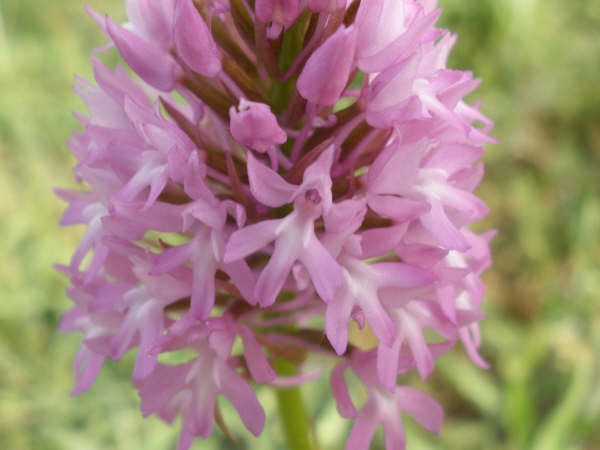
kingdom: Plantae
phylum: Tracheophyta
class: Liliopsida
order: Asparagales
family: Orchidaceae
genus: Anacamptis
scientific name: Anacamptis pyramidalis
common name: Pyramidal orchid
